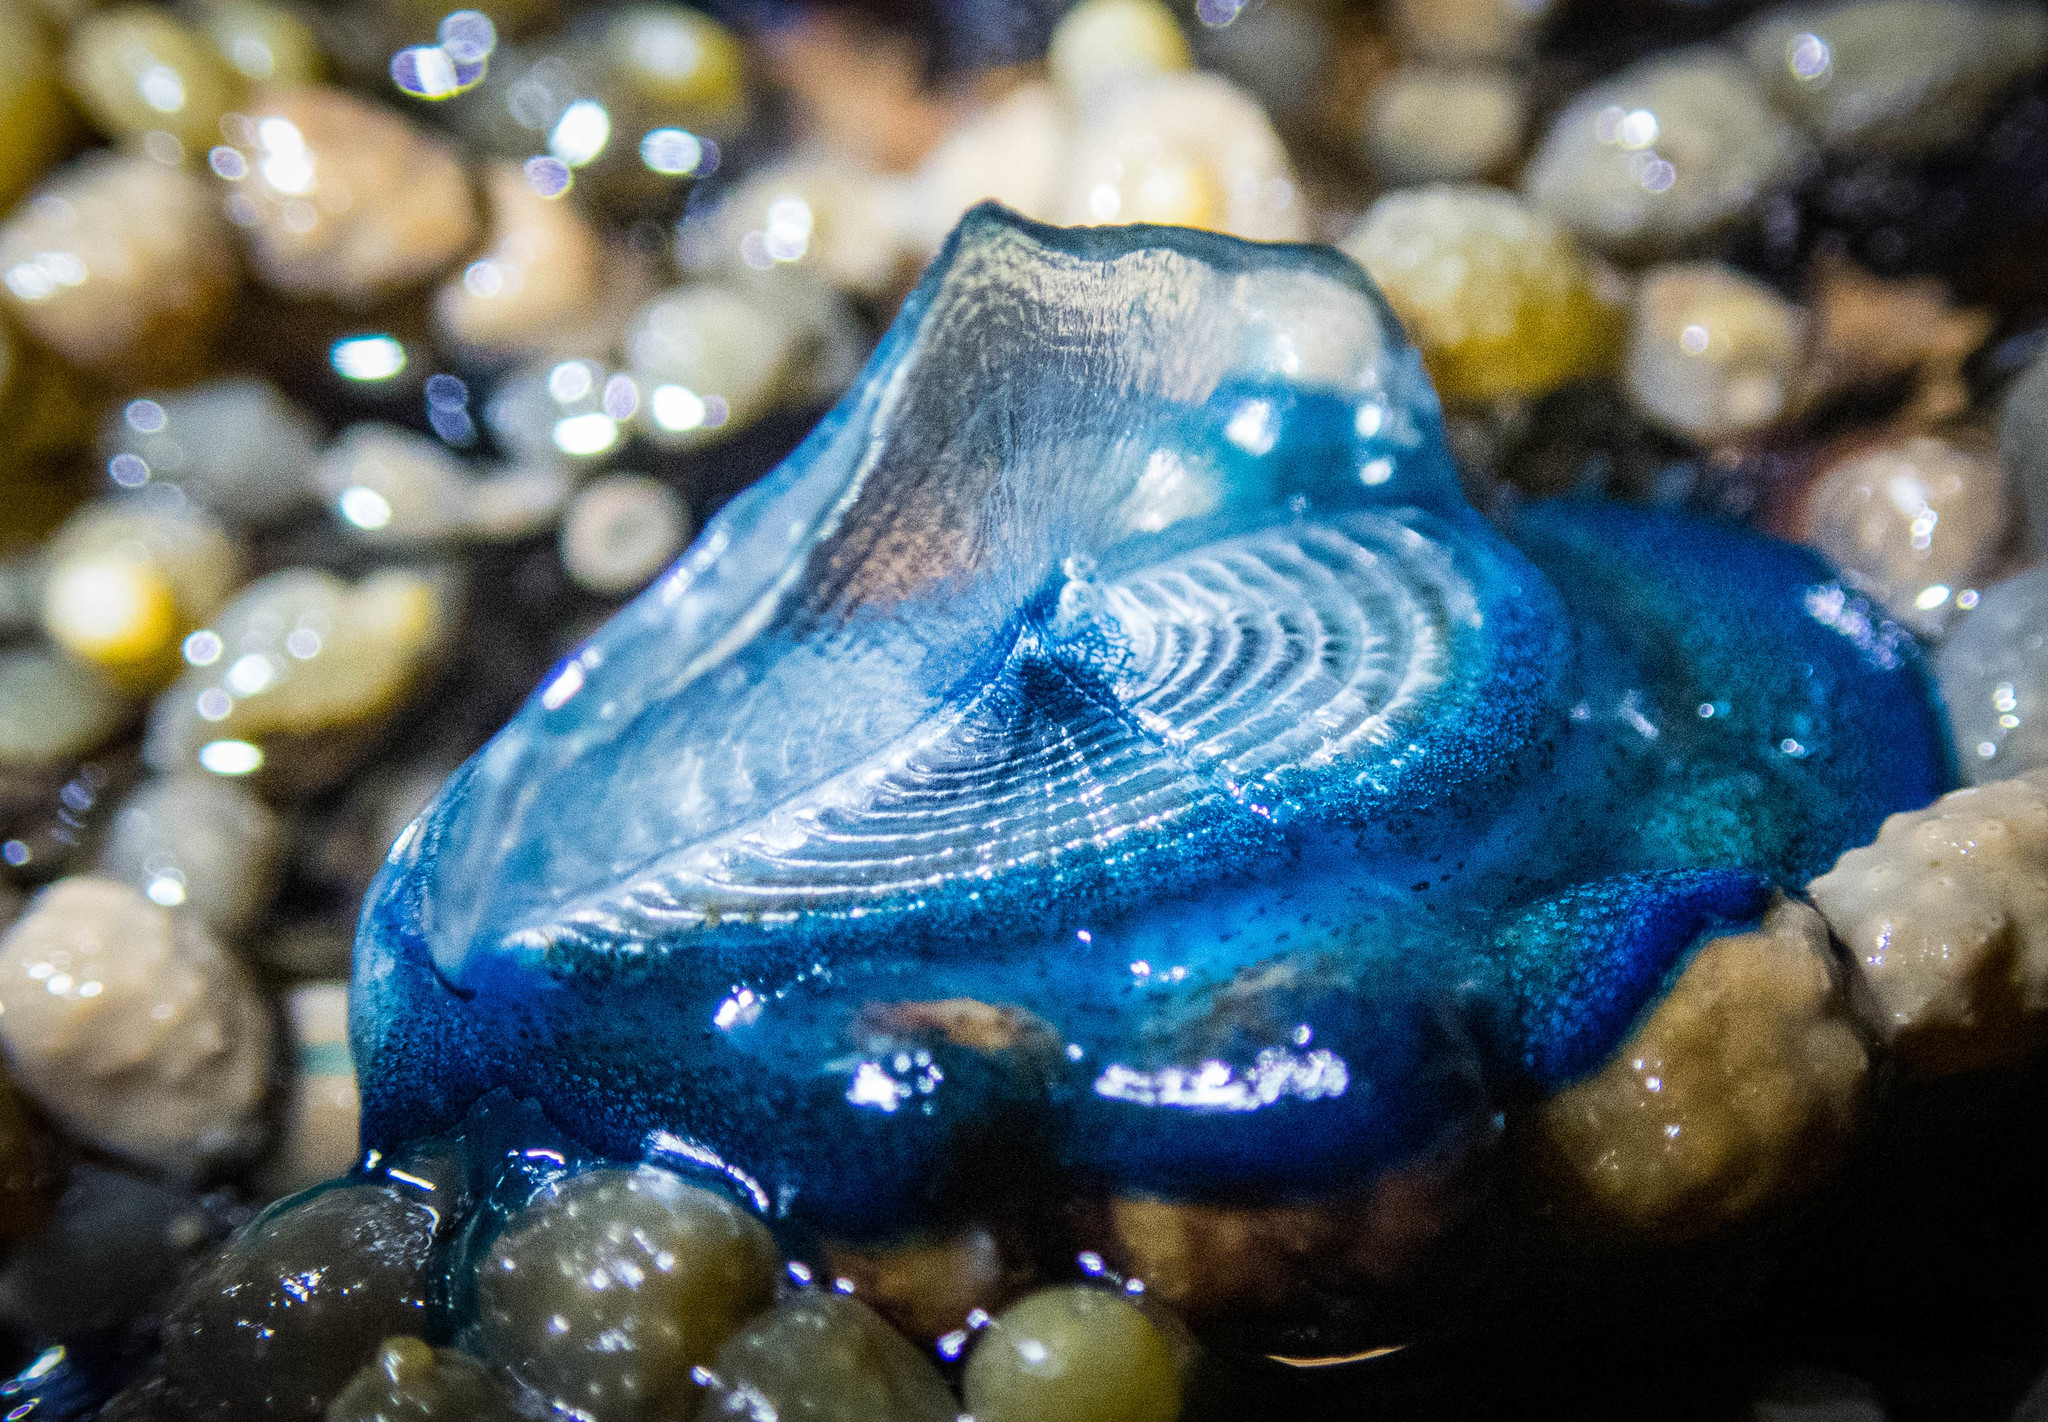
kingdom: Animalia
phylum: Cnidaria
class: Hydrozoa
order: Anthoathecata
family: Porpitidae
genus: Velella
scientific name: Velella velella
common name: By-the-wind-sailor
